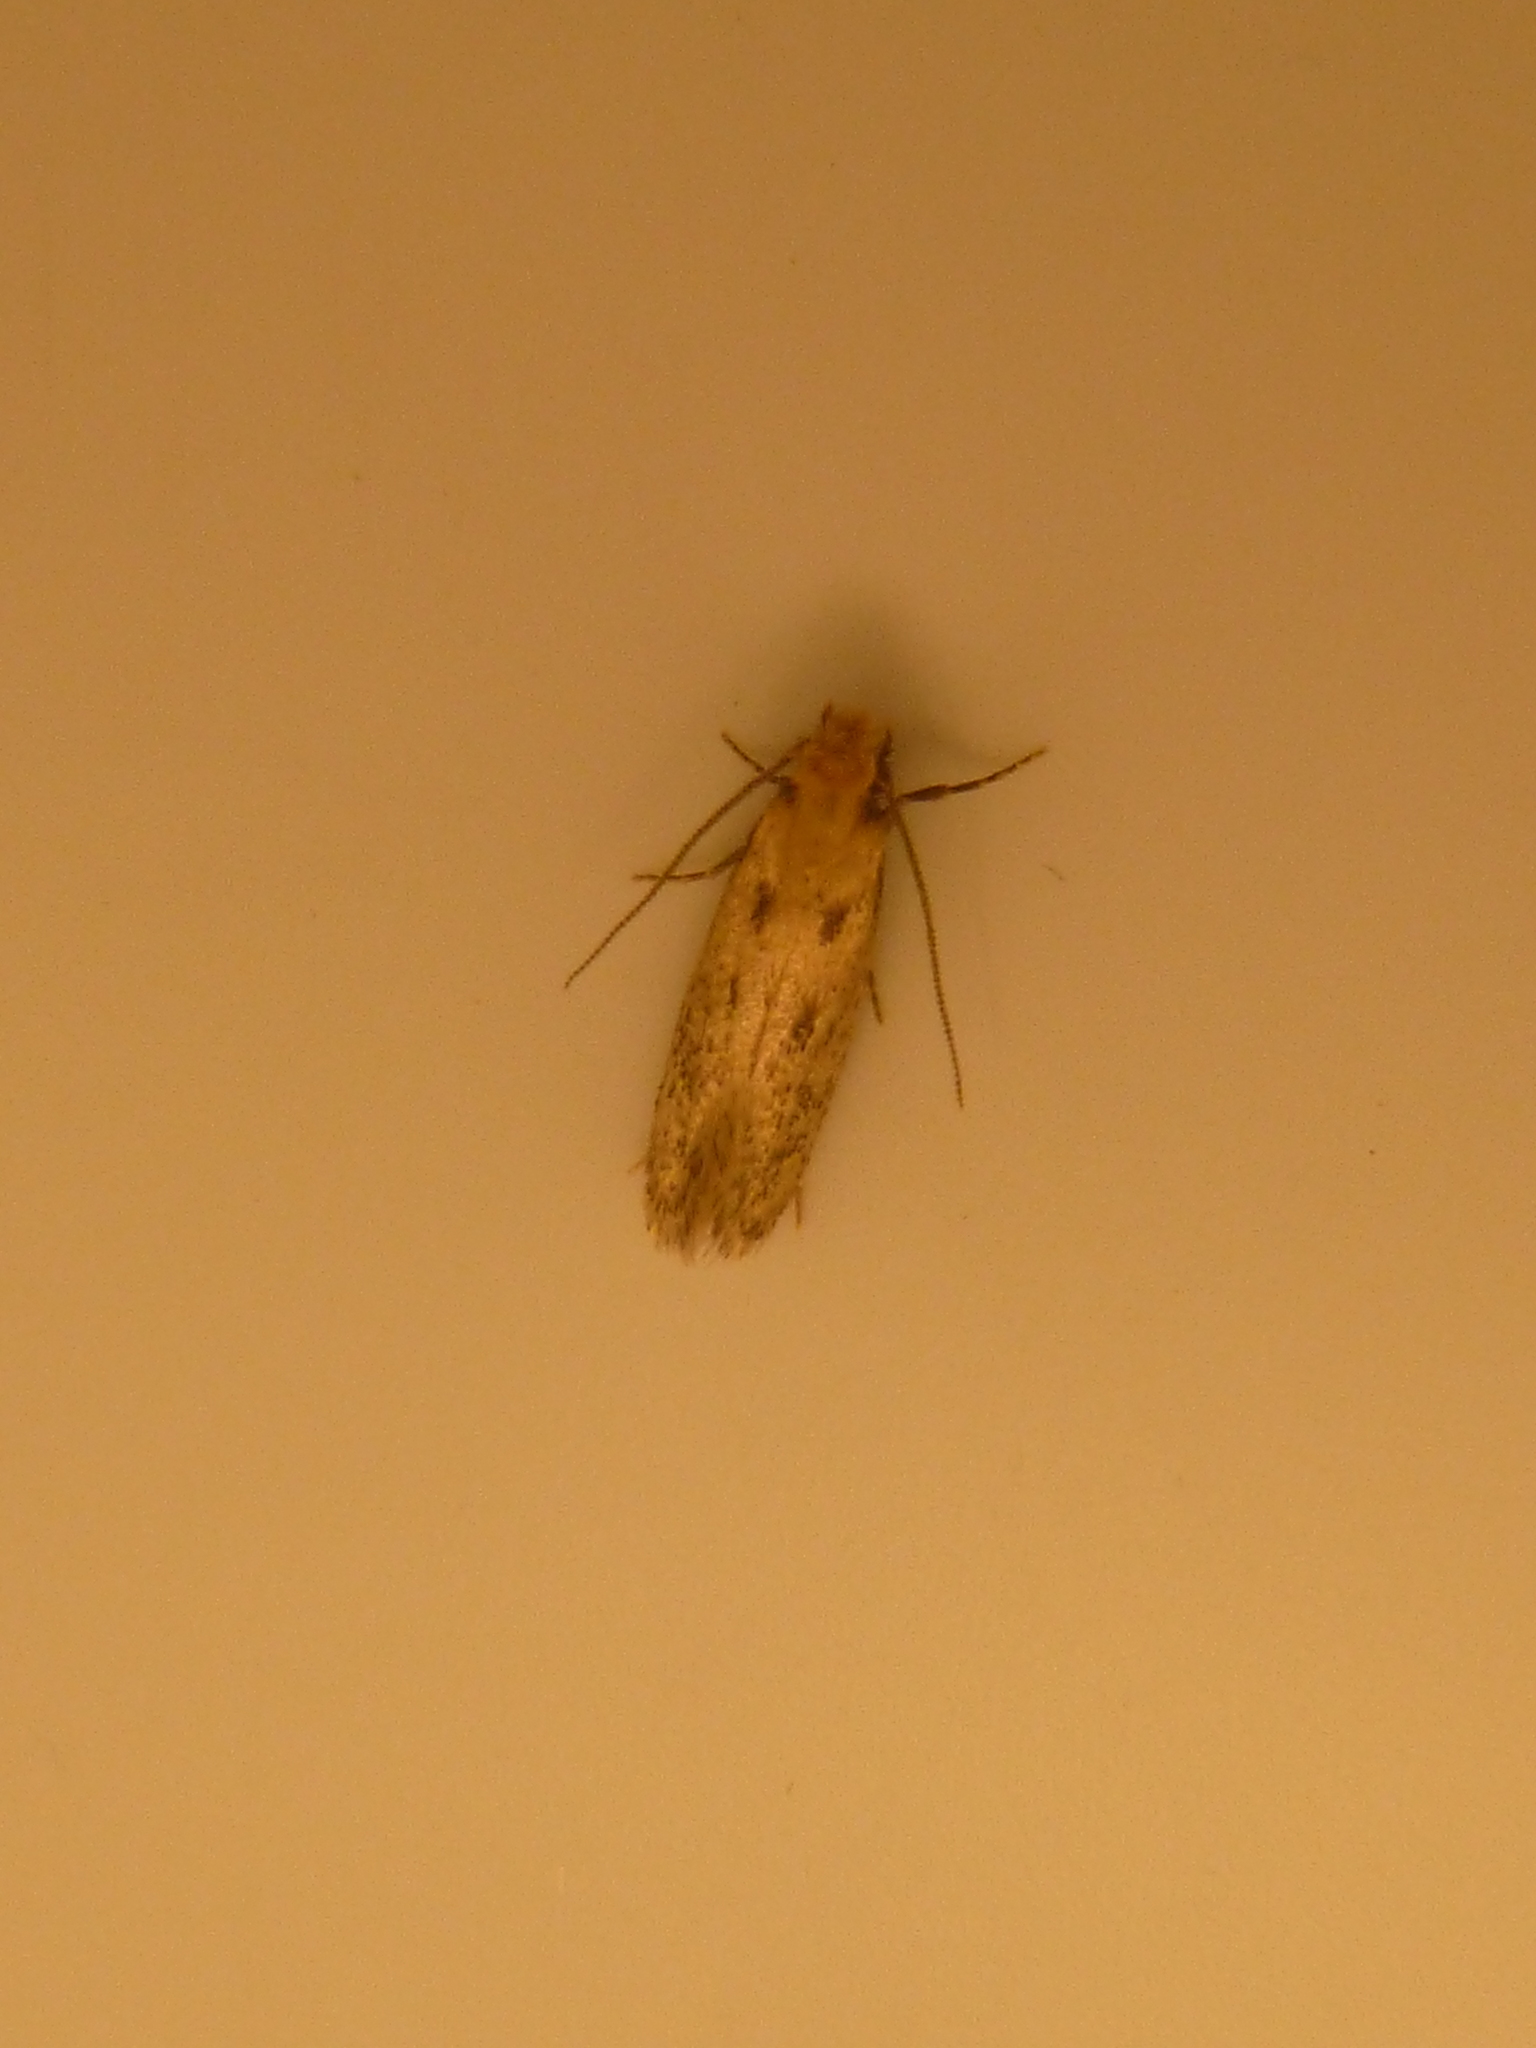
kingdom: Animalia
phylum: Arthropoda
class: Insecta
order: Lepidoptera
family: Oecophoridae
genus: Hofmannophila
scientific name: Hofmannophila pseudospretella
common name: Brown house moth
